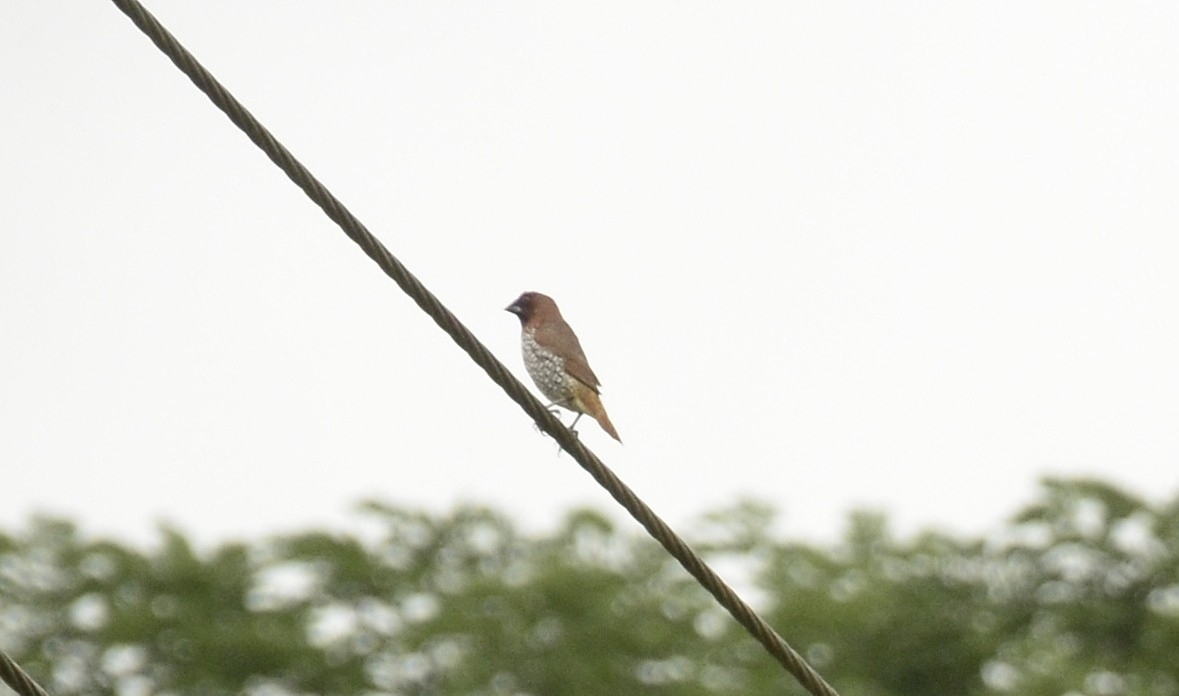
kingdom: Animalia
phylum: Chordata
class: Aves
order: Passeriformes
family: Estrildidae
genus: Lonchura
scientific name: Lonchura punctulata
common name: Scaly-breasted munia
